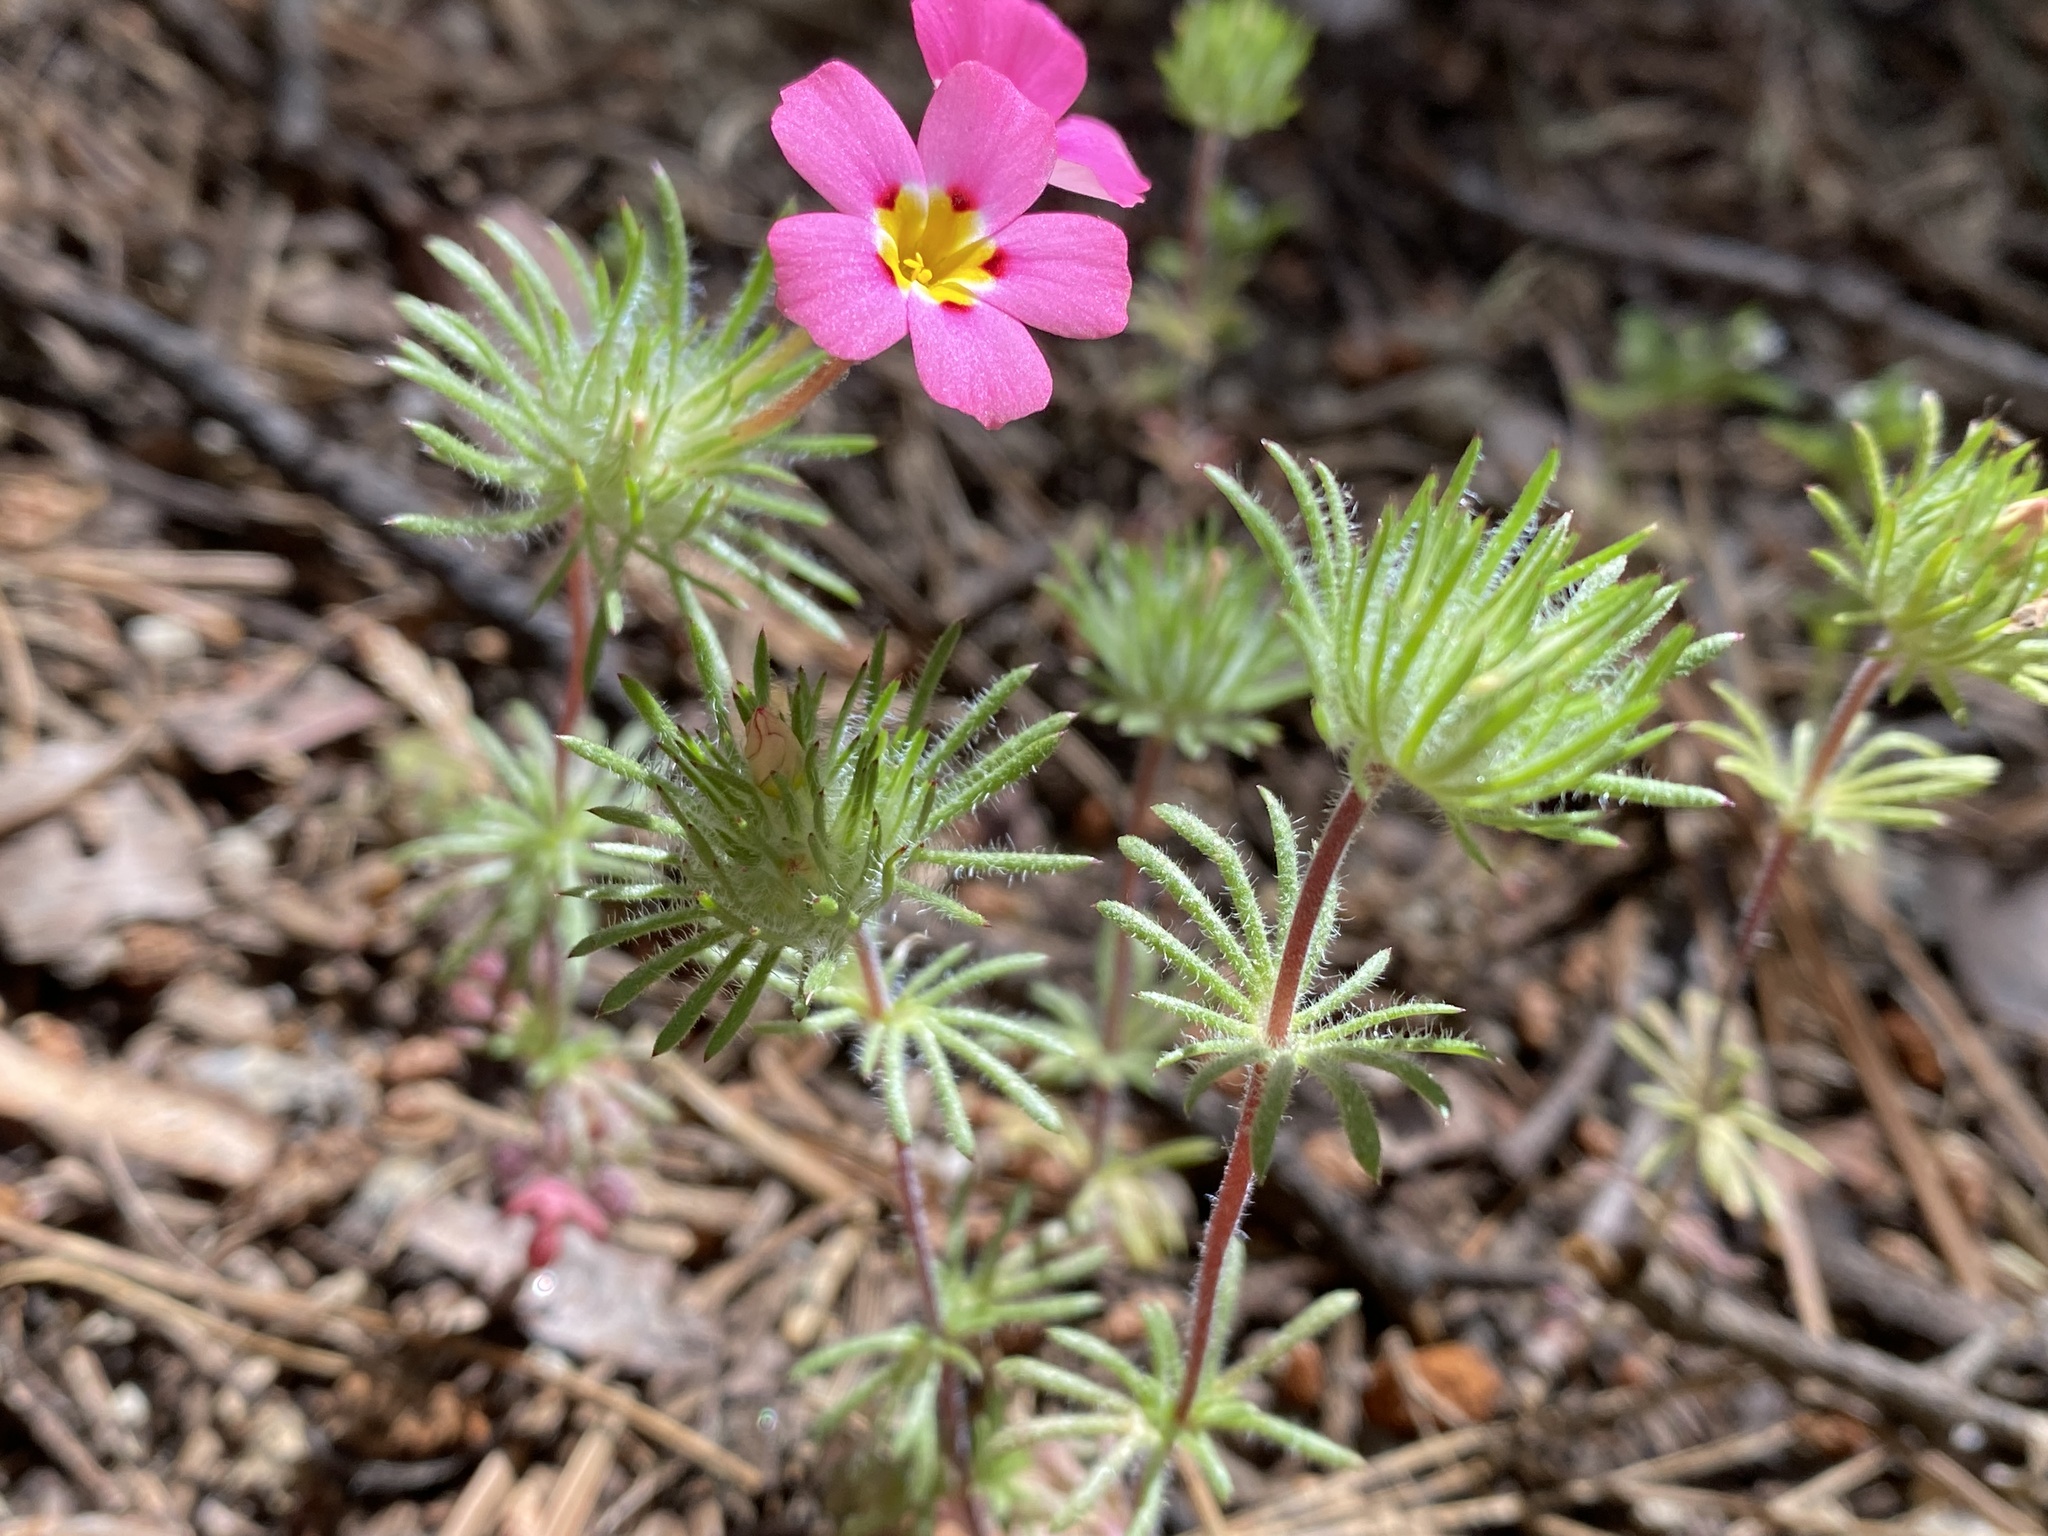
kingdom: Plantae
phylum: Tracheophyta
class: Magnoliopsida
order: Ericales
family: Polemoniaceae
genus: Leptosiphon
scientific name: Leptosiphon ciliatus
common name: Whiskerbrush
